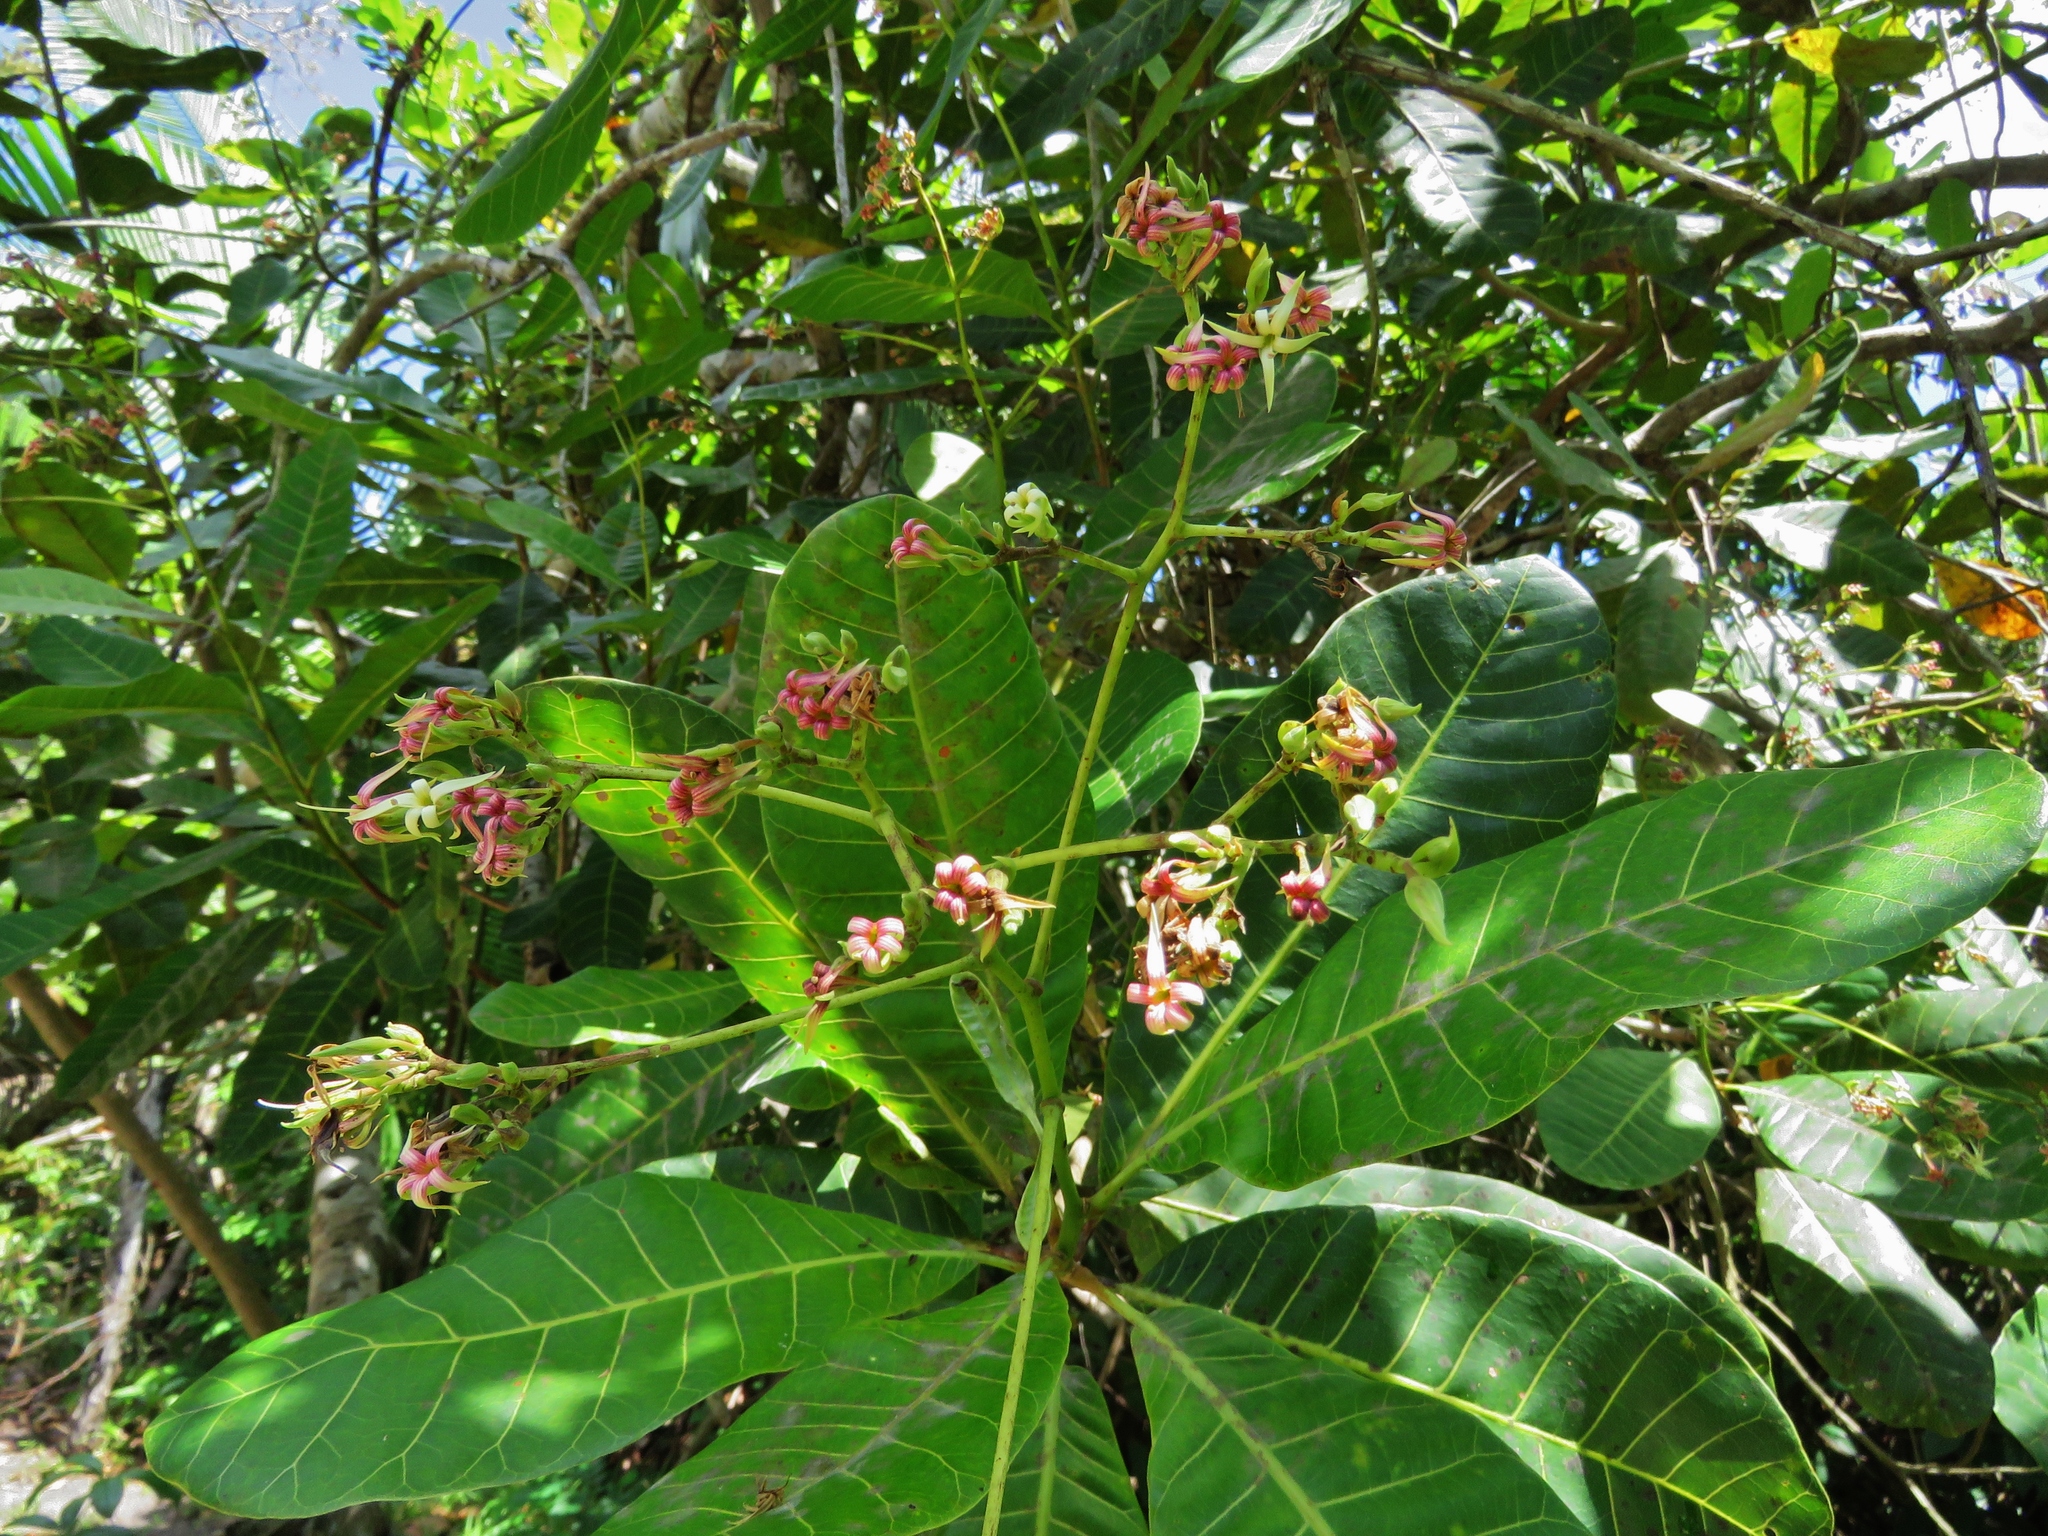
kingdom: Plantae
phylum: Tracheophyta
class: Magnoliopsida
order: Sapindales
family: Anacardiaceae
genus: Anacardium
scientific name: Anacardium occidentale
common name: Cashew
